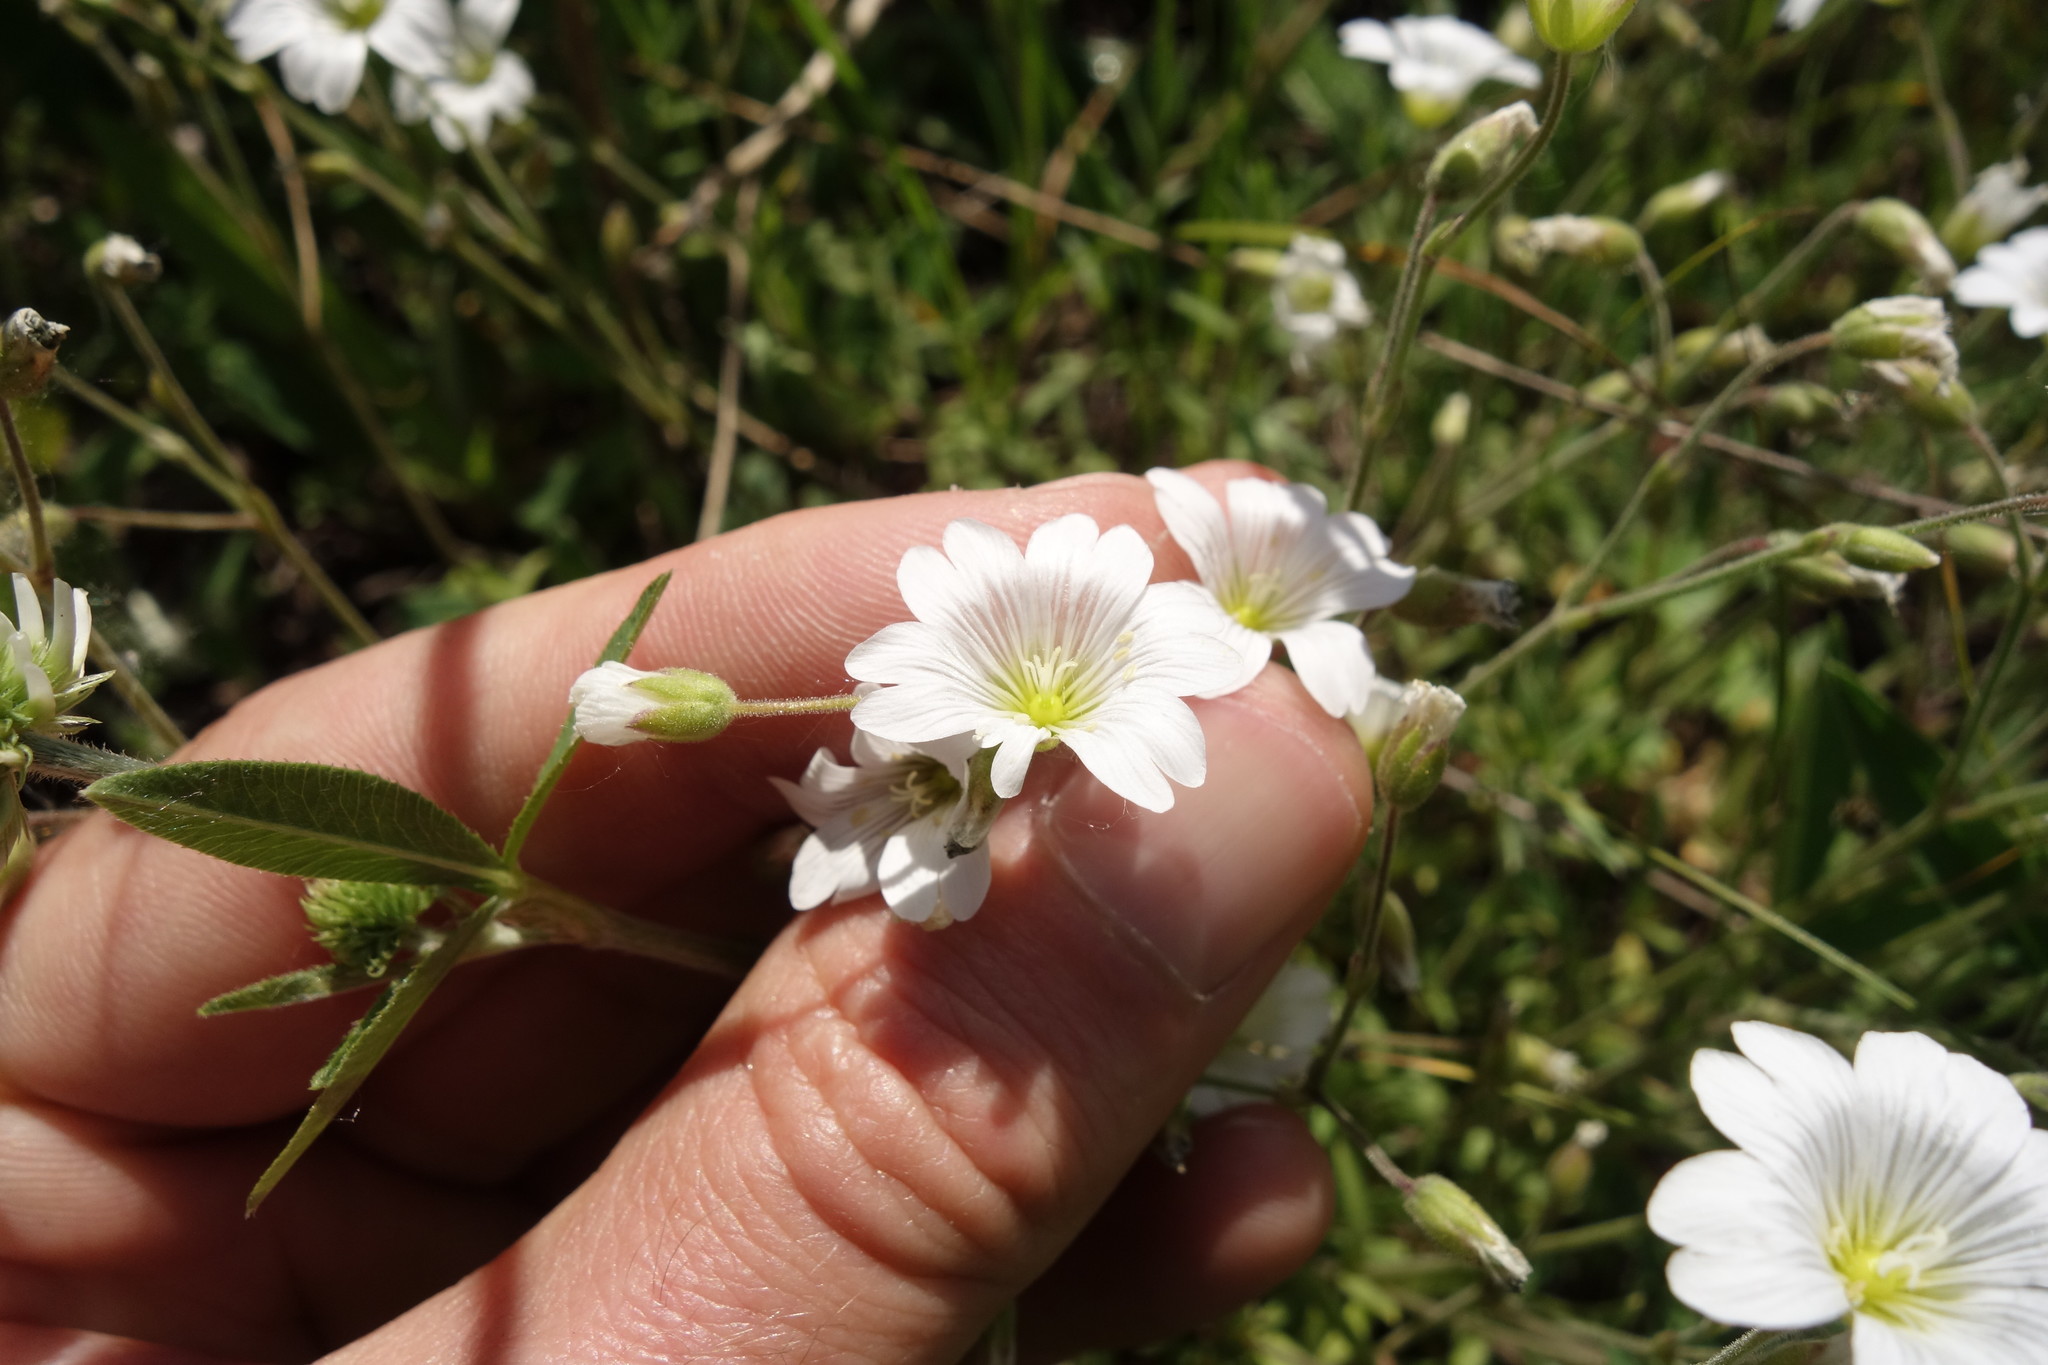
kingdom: Plantae
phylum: Tracheophyta
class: Magnoliopsida
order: Caryophyllales
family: Caryophyllaceae
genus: Cerastium
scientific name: Cerastium arvense
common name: Field mouse-ear
